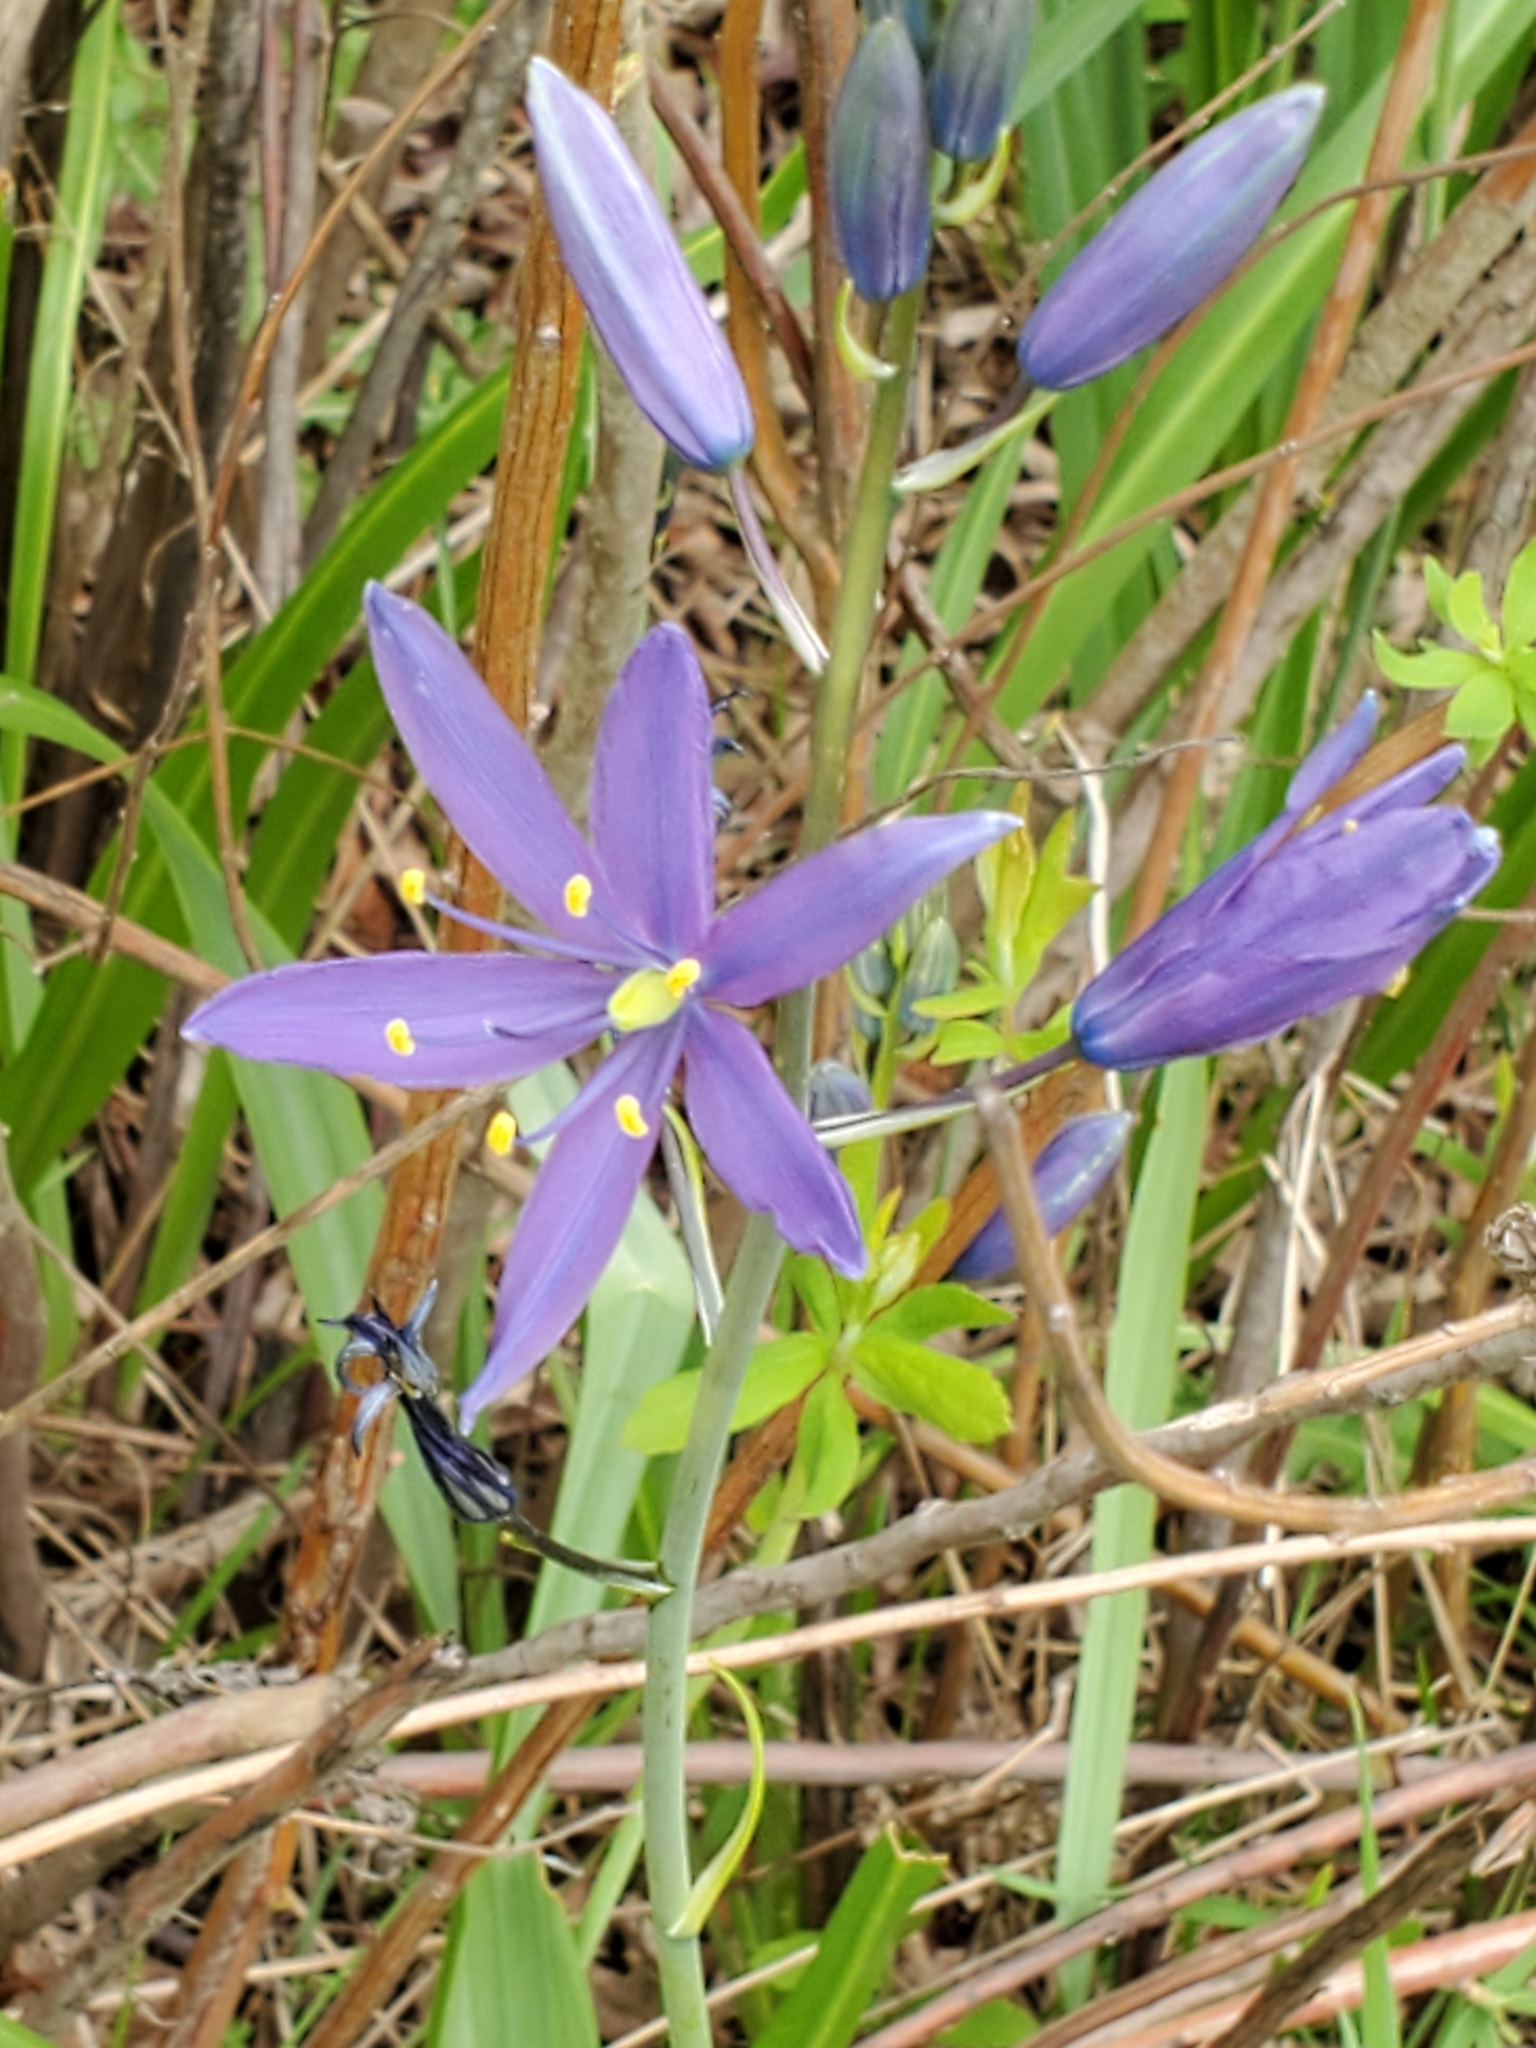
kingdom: Plantae
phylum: Tracheophyta
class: Liliopsida
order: Asparagales
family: Asparagaceae
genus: Camassia
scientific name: Camassia leichtlinii
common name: Leichtlin's camas
